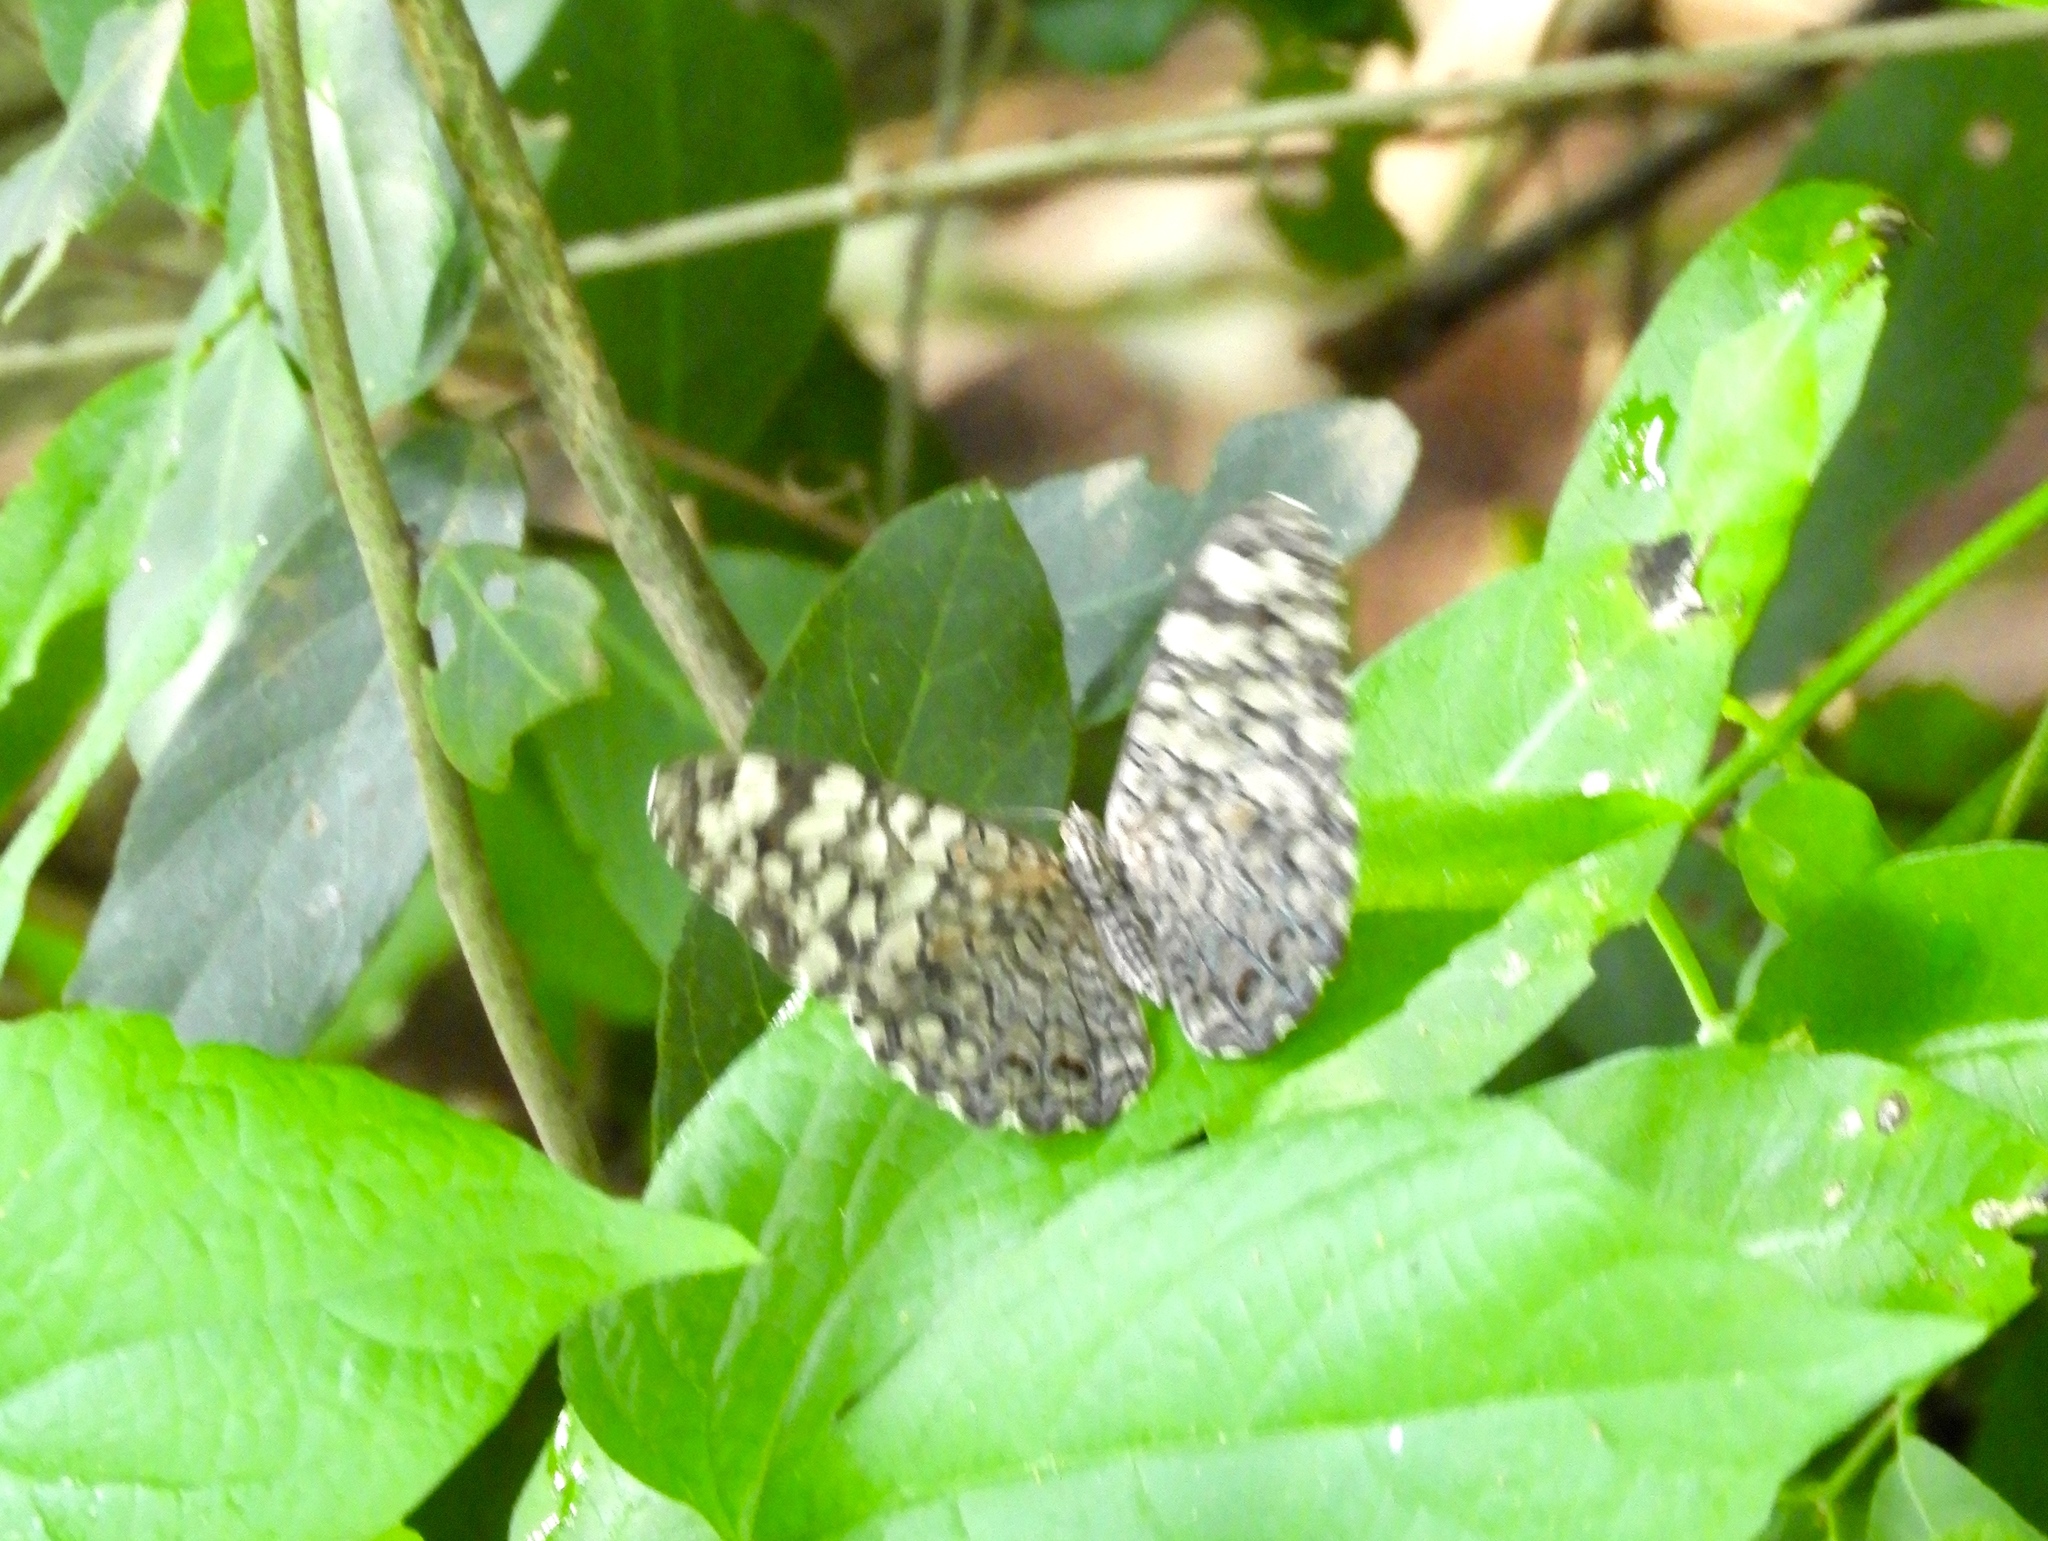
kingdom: Animalia
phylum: Arthropoda
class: Insecta
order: Lepidoptera
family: Nymphalidae
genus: Hamadryas
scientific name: Hamadryas februa
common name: Gray cracker
